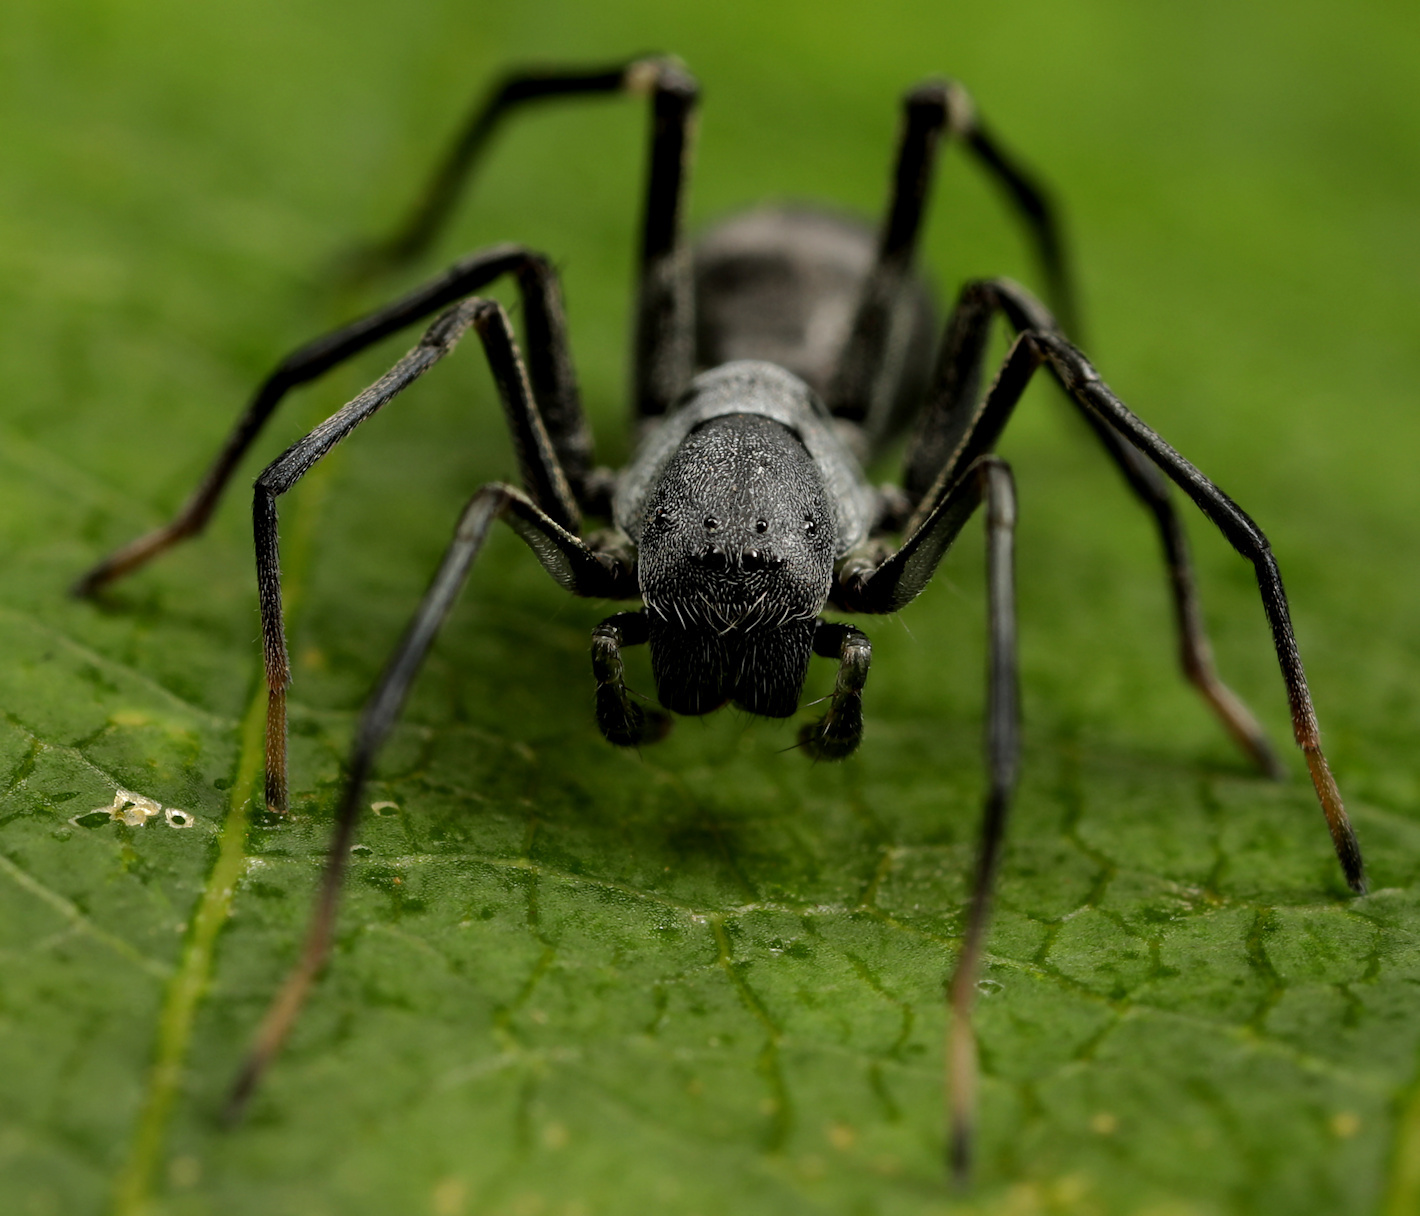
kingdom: Animalia
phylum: Arthropoda
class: Arachnida
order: Araneae
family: Corinnidae
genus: Apochinomma
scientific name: Apochinomma formicaeforme
